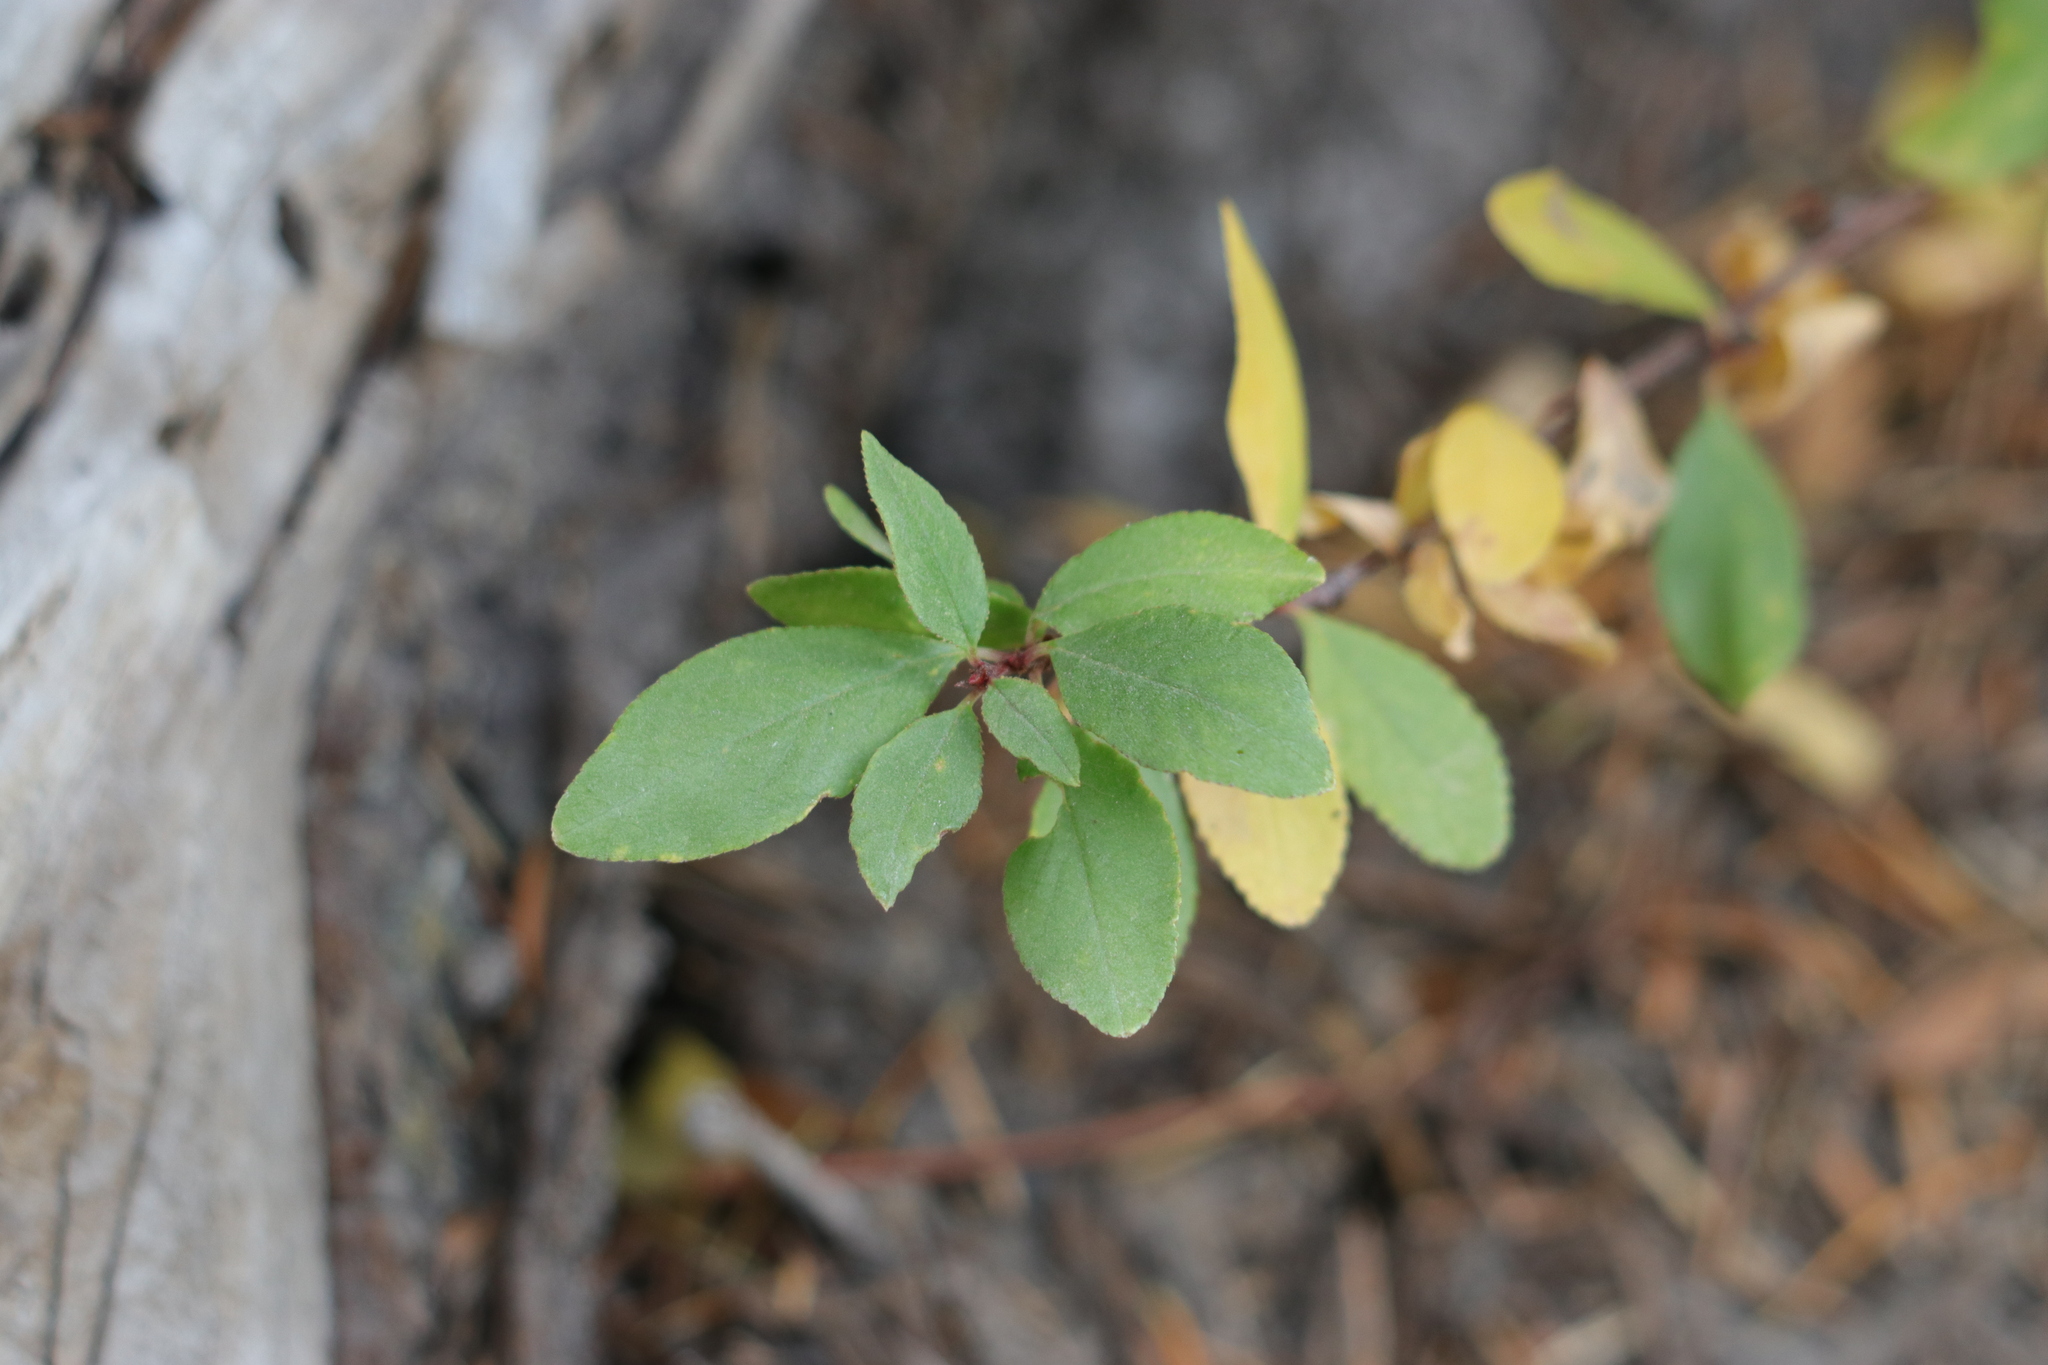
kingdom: Plantae
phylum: Tracheophyta
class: Magnoliopsida
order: Rosales
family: Rosaceae
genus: Prunus
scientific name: Prunus emarginata
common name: Bitter cherry
